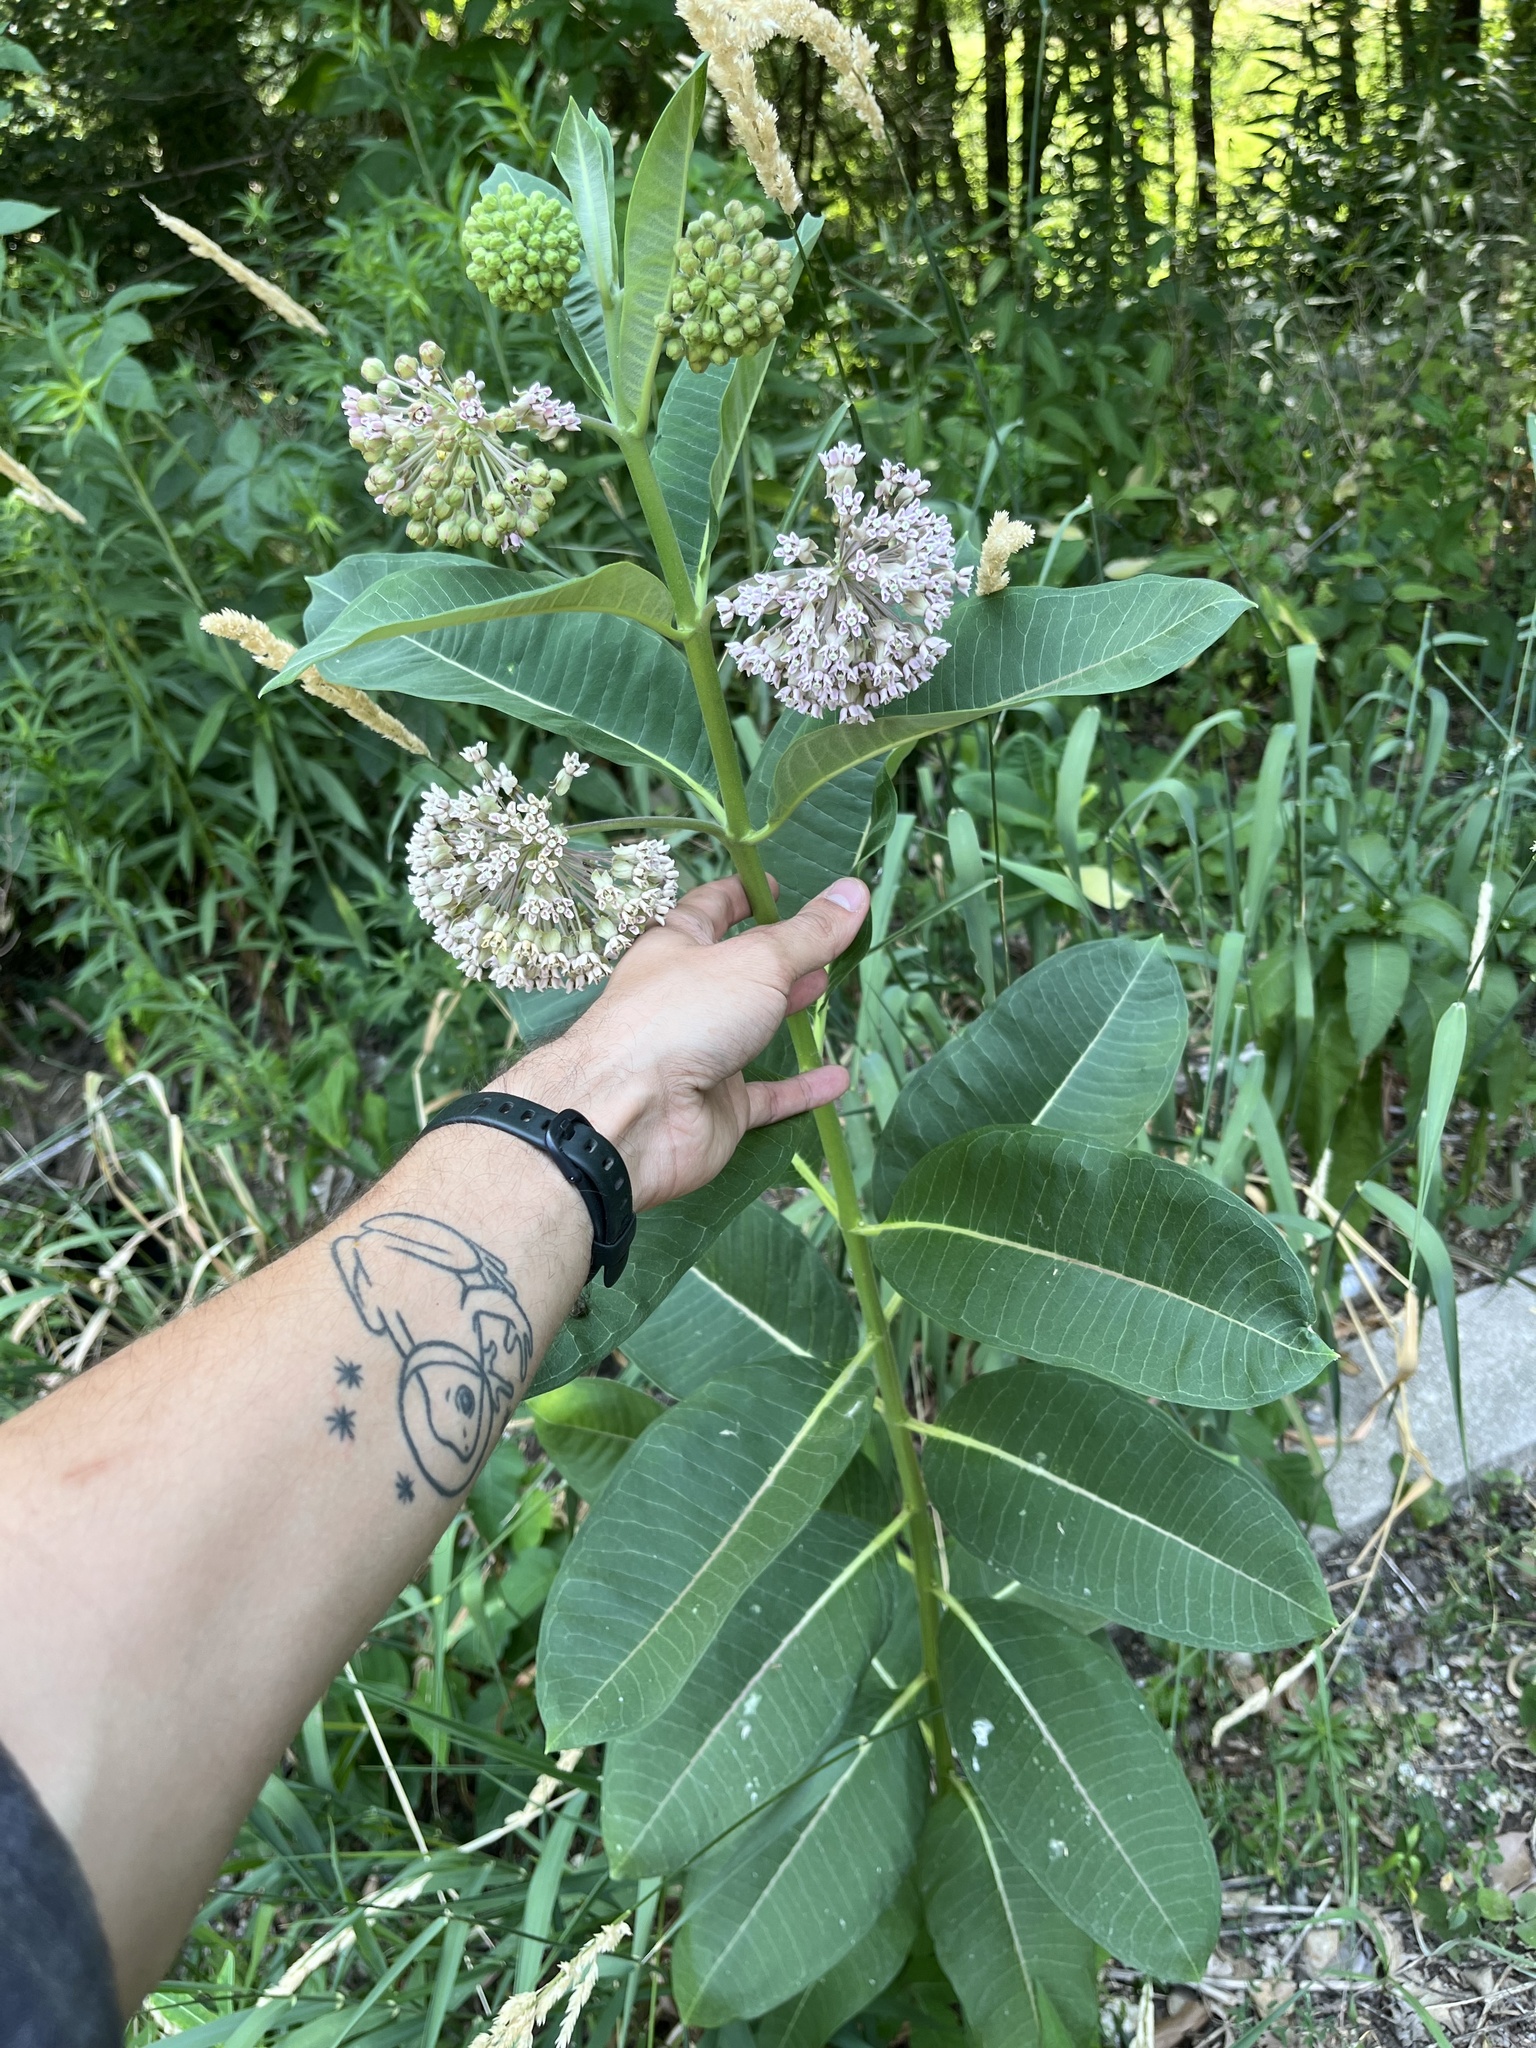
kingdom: Plantae
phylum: Tracheophyta
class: Magnoliopsida
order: Gentianales
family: Apocynaceae
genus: Asclepias
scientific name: Asclepias syriaca
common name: Common milkweed
